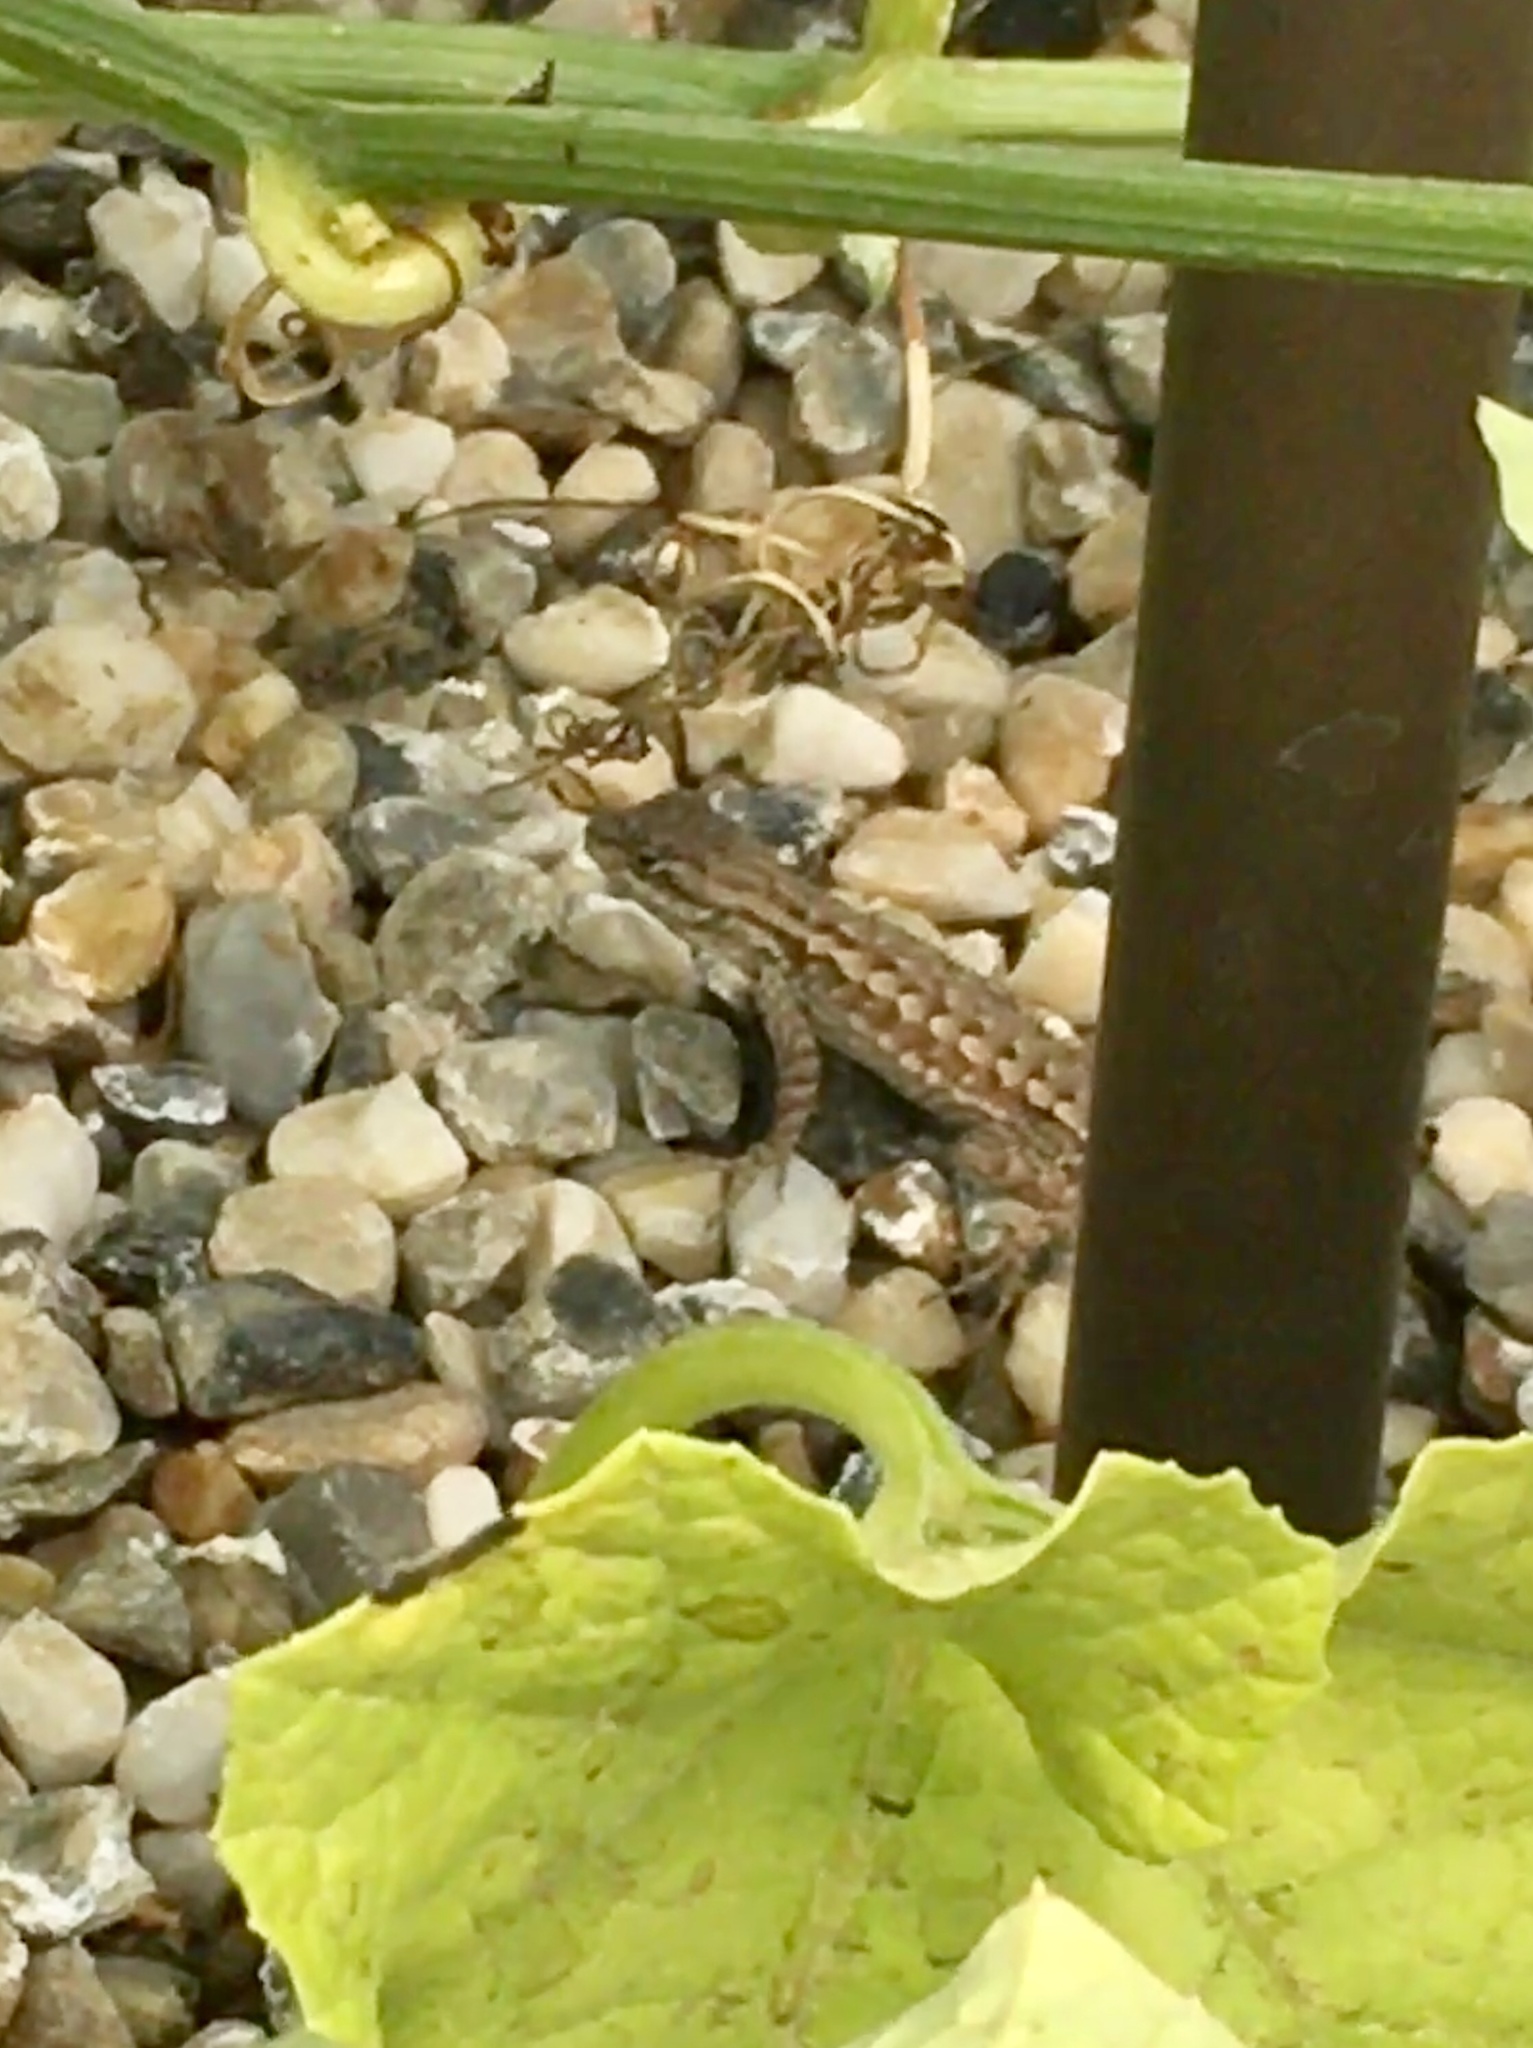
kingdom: Animalia
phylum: Chordata
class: Squamata
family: Phrynosomatidae
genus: Sceloporus
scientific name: Sceloporus occidentalis
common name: Western fence lizard
